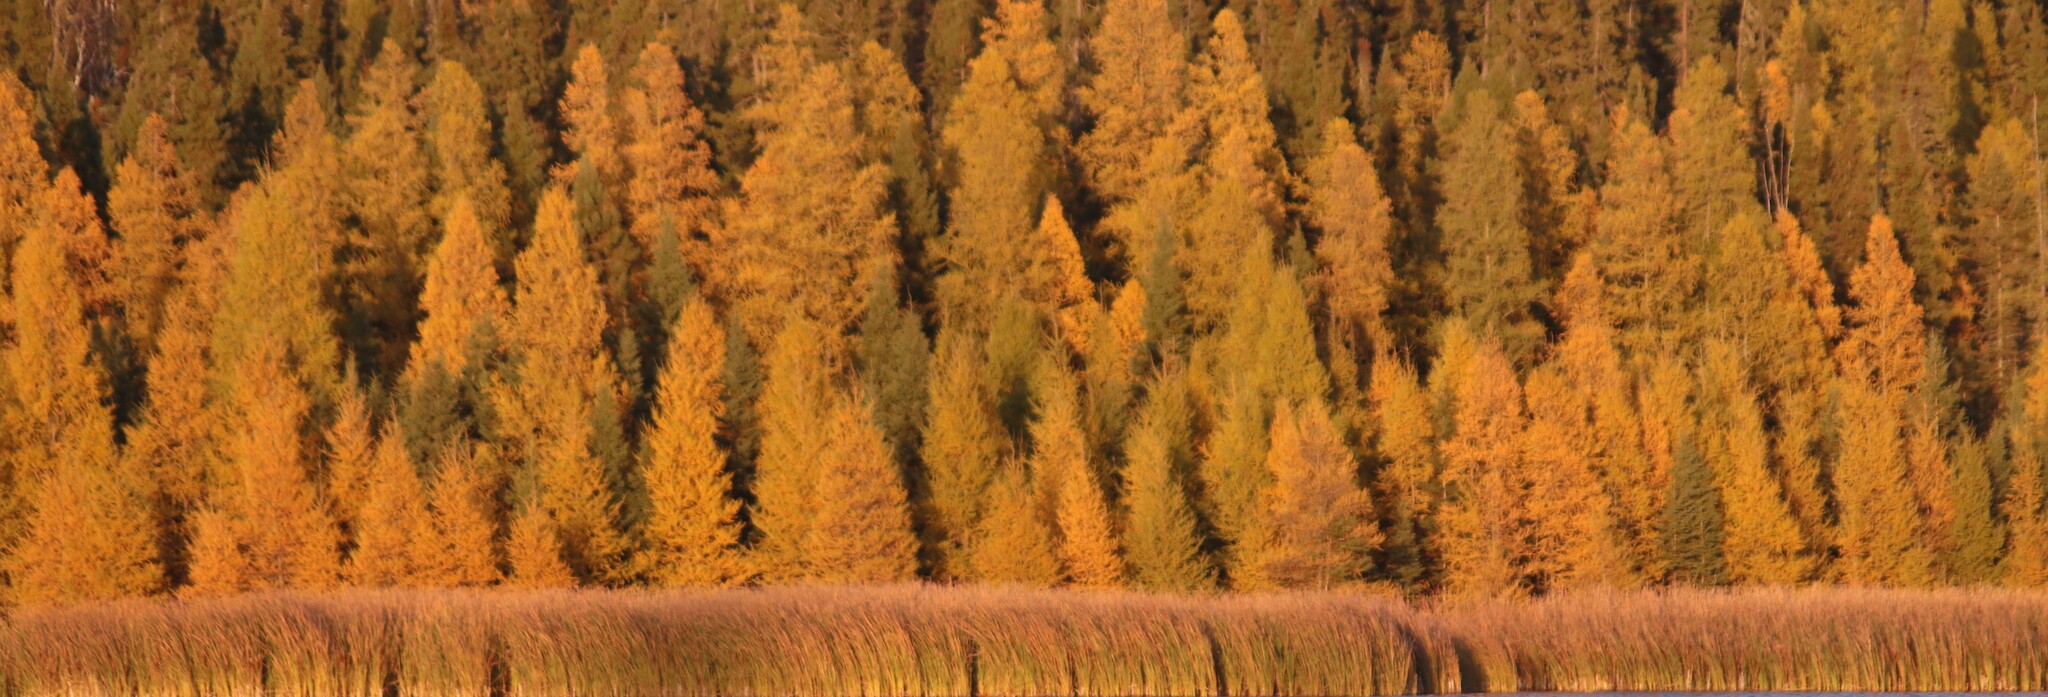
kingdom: Plantae
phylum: Tracheophyta
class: Pinopsida
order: Pinales
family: Pinaceae
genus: Larix
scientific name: Larix laricina
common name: American larch
